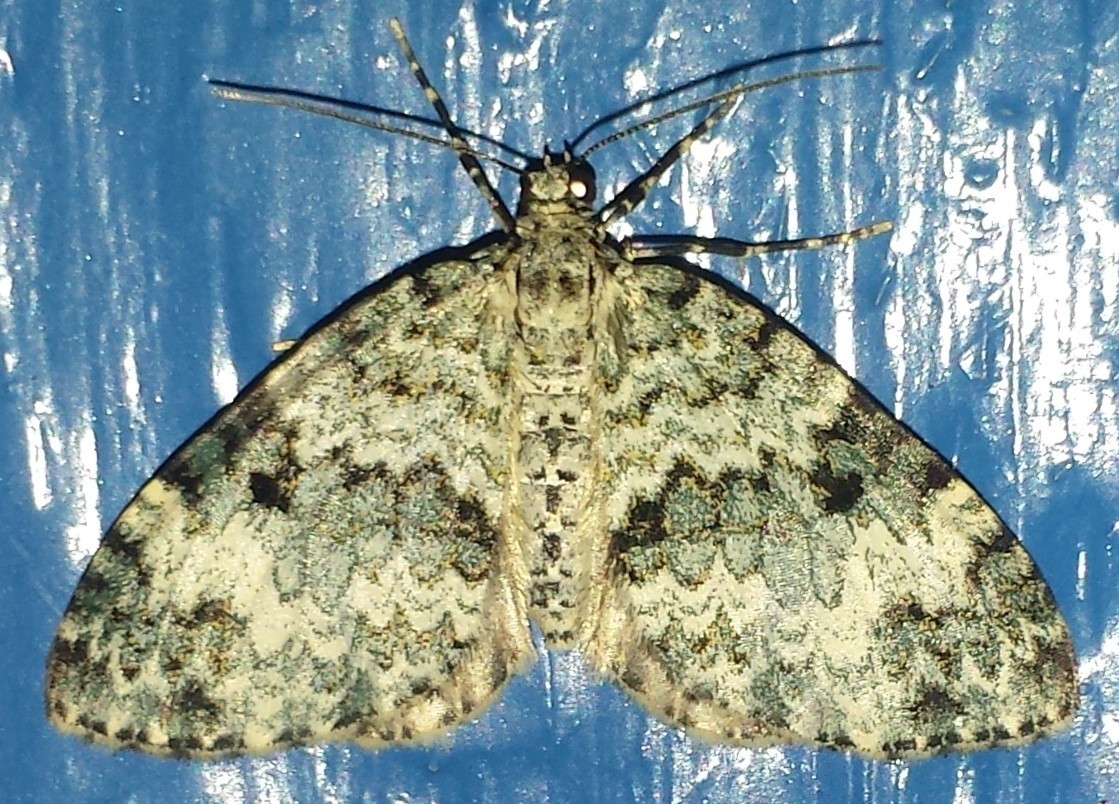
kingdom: Animalia
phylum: Arthropoda
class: Insecta
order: Lepidoptera
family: Geometridae
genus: Spargania
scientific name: Spargania magnoliata
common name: Double-banded carpet
